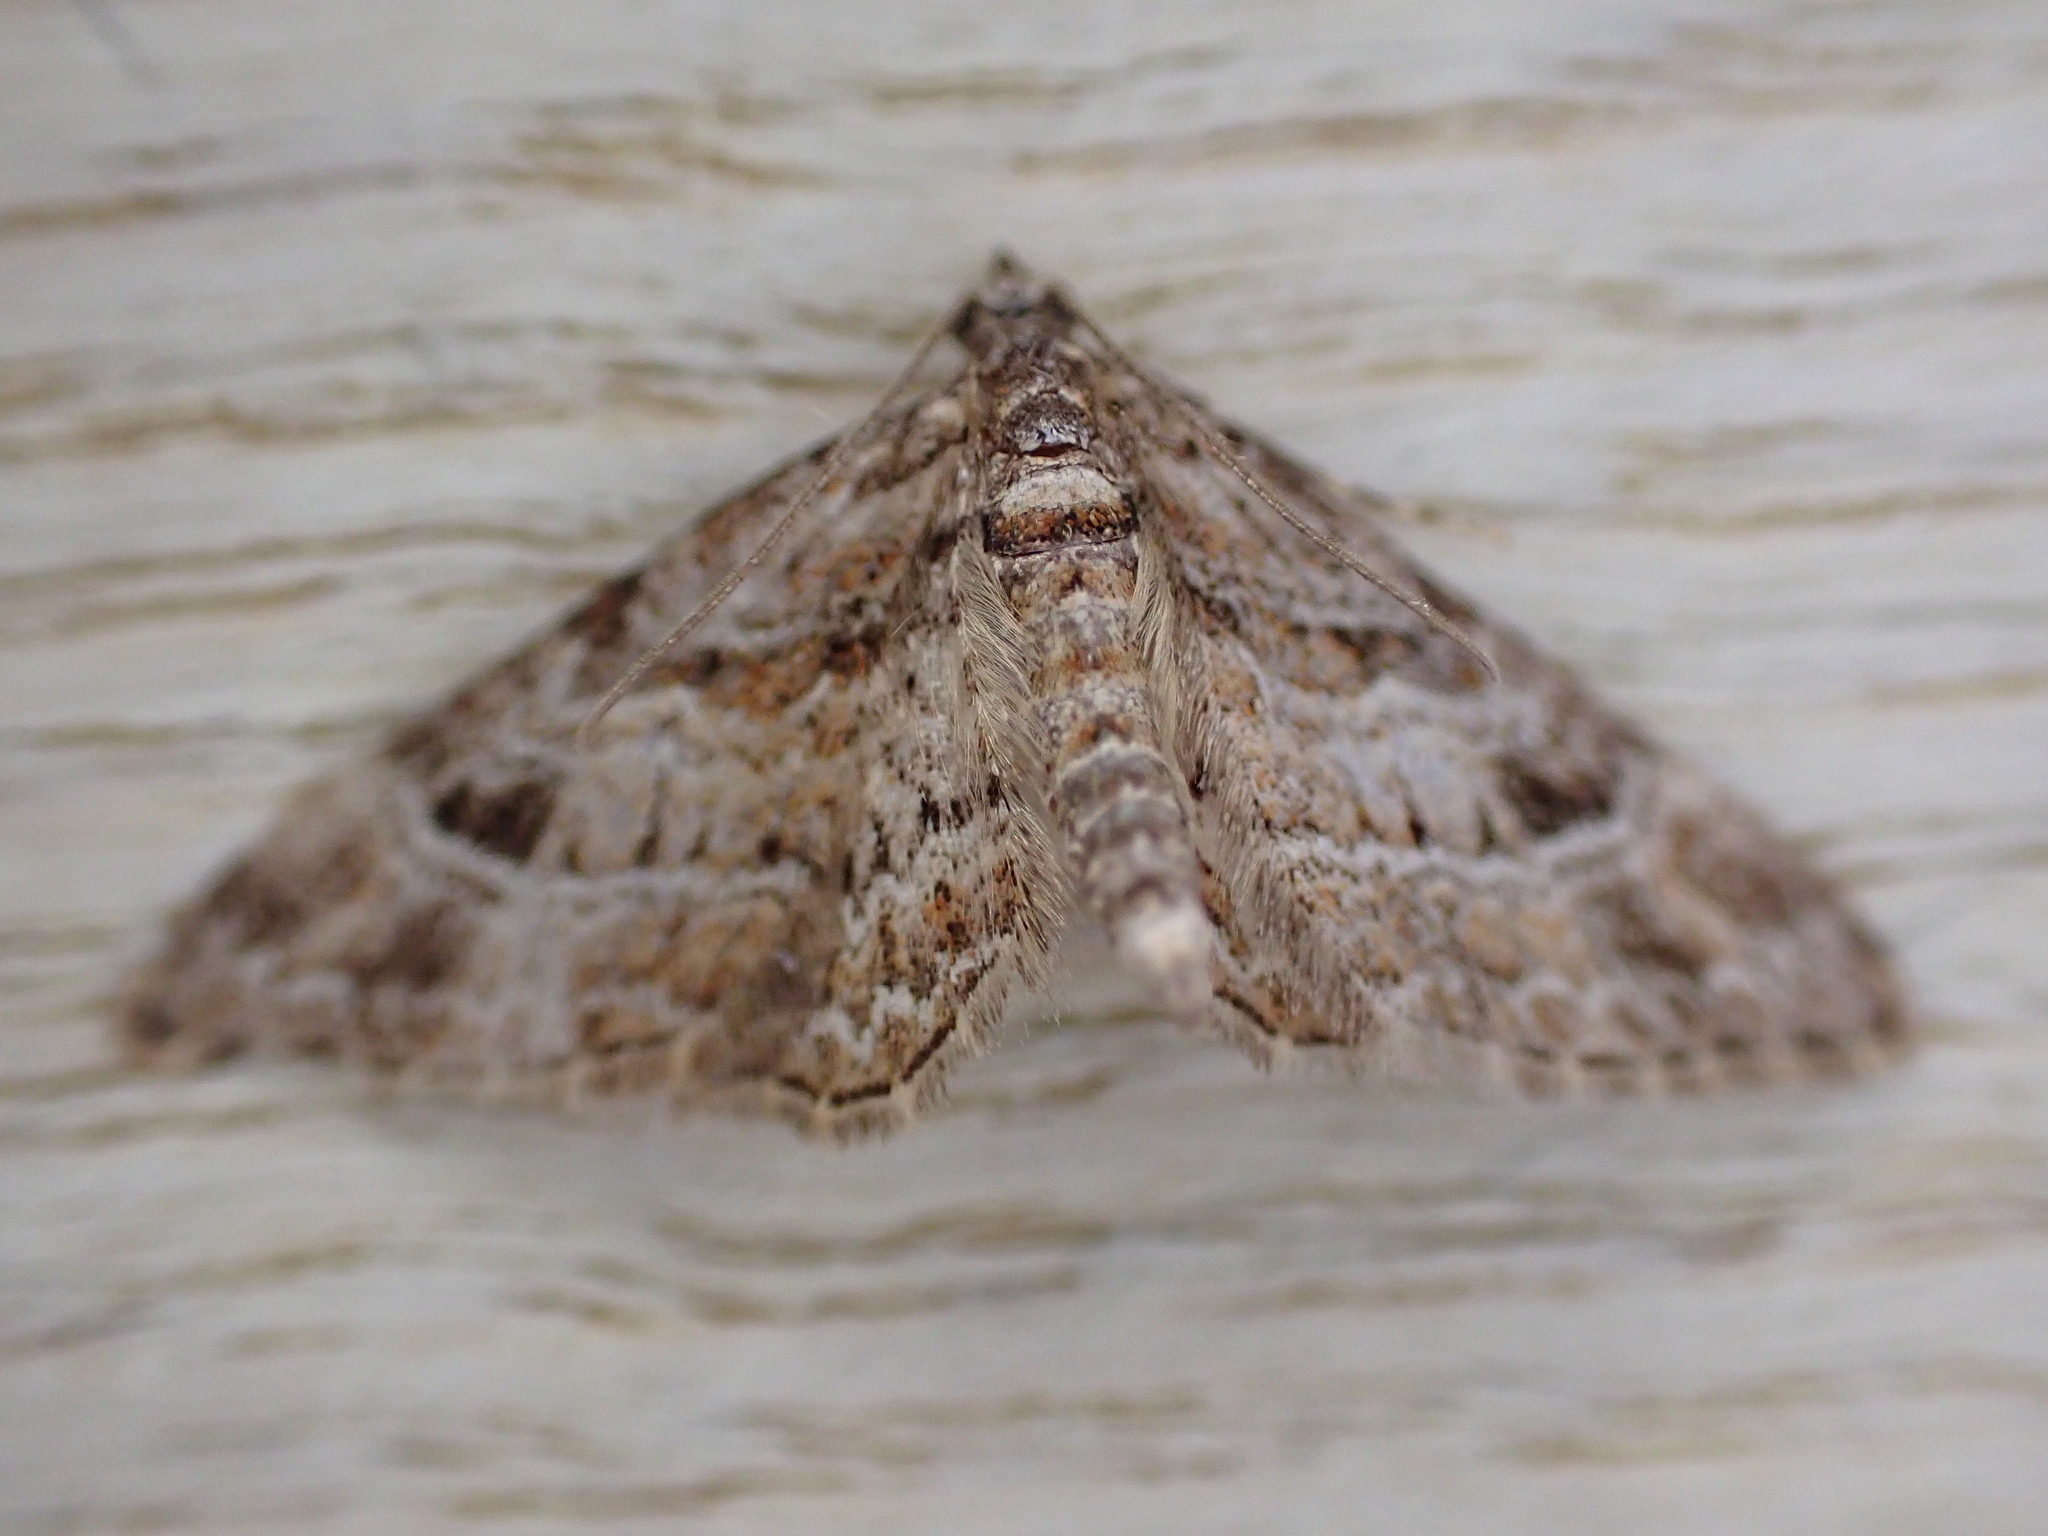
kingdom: Animalia
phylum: Arthropoda
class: Insecta
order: Lepidoptera
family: Geometridae
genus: Gymnoscelis
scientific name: Gymnoscelis rufifasciata
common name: Double-striped pug
